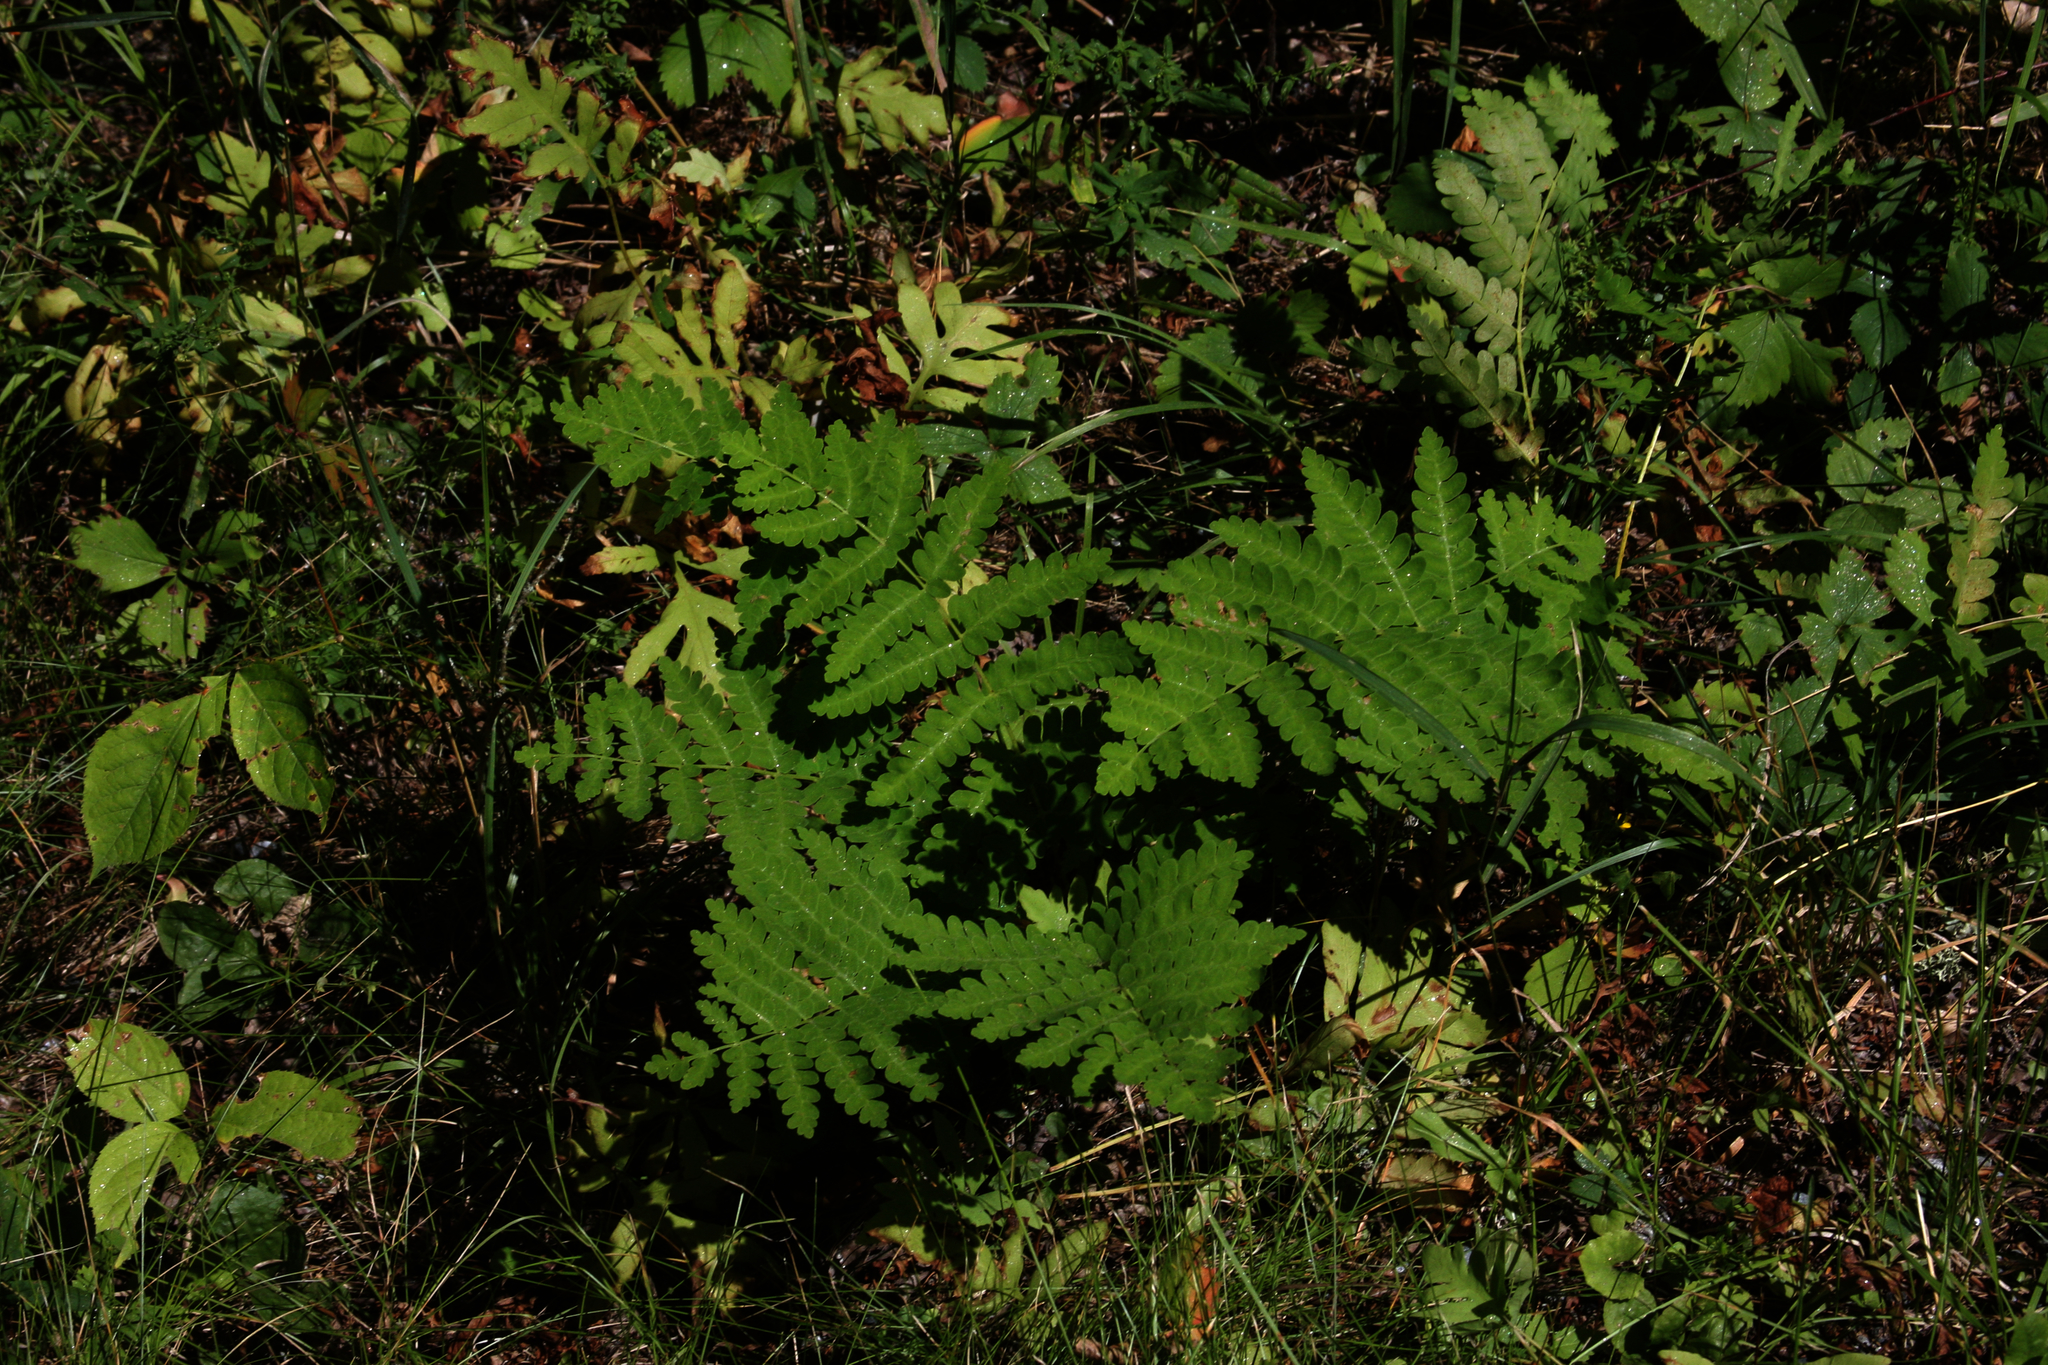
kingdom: Plantae
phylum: Tracheophyta
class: Polypodiopsida
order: Osmundales
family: Osmundaceae
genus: Claytosmunda
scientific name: Claytosmunda claytoniana
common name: Clayton's fern
